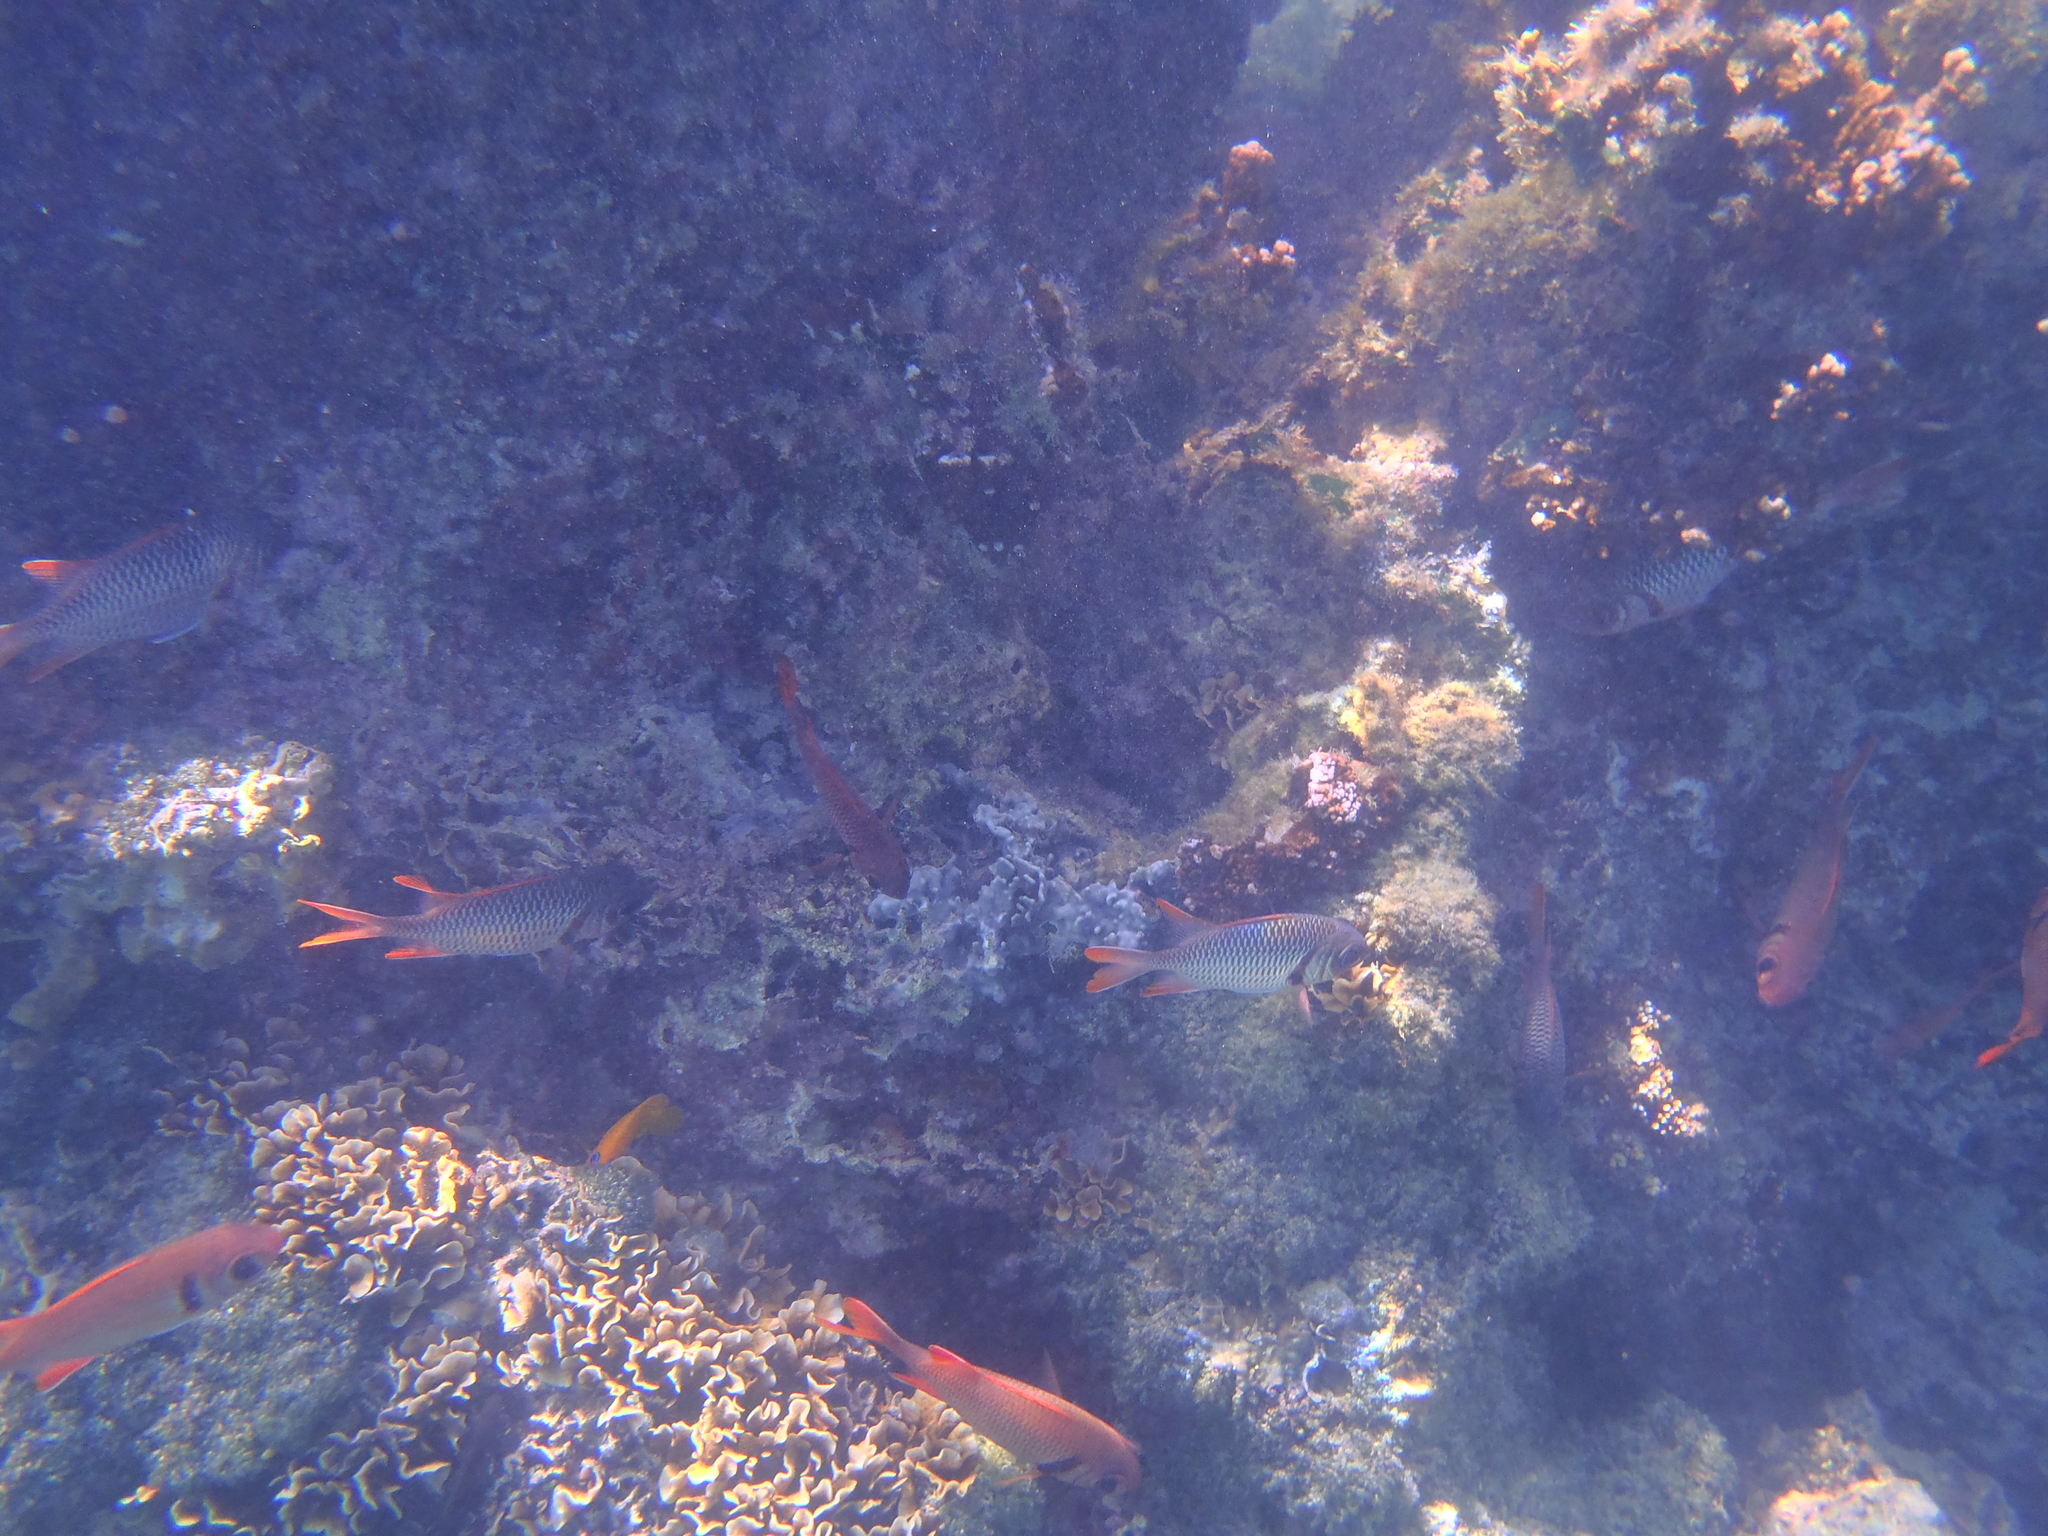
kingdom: Animalia
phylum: Chordata
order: Beryciformes
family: Holocentridae
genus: Myripristis
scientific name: Myripristis violacea
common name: Lattice soldierfish
